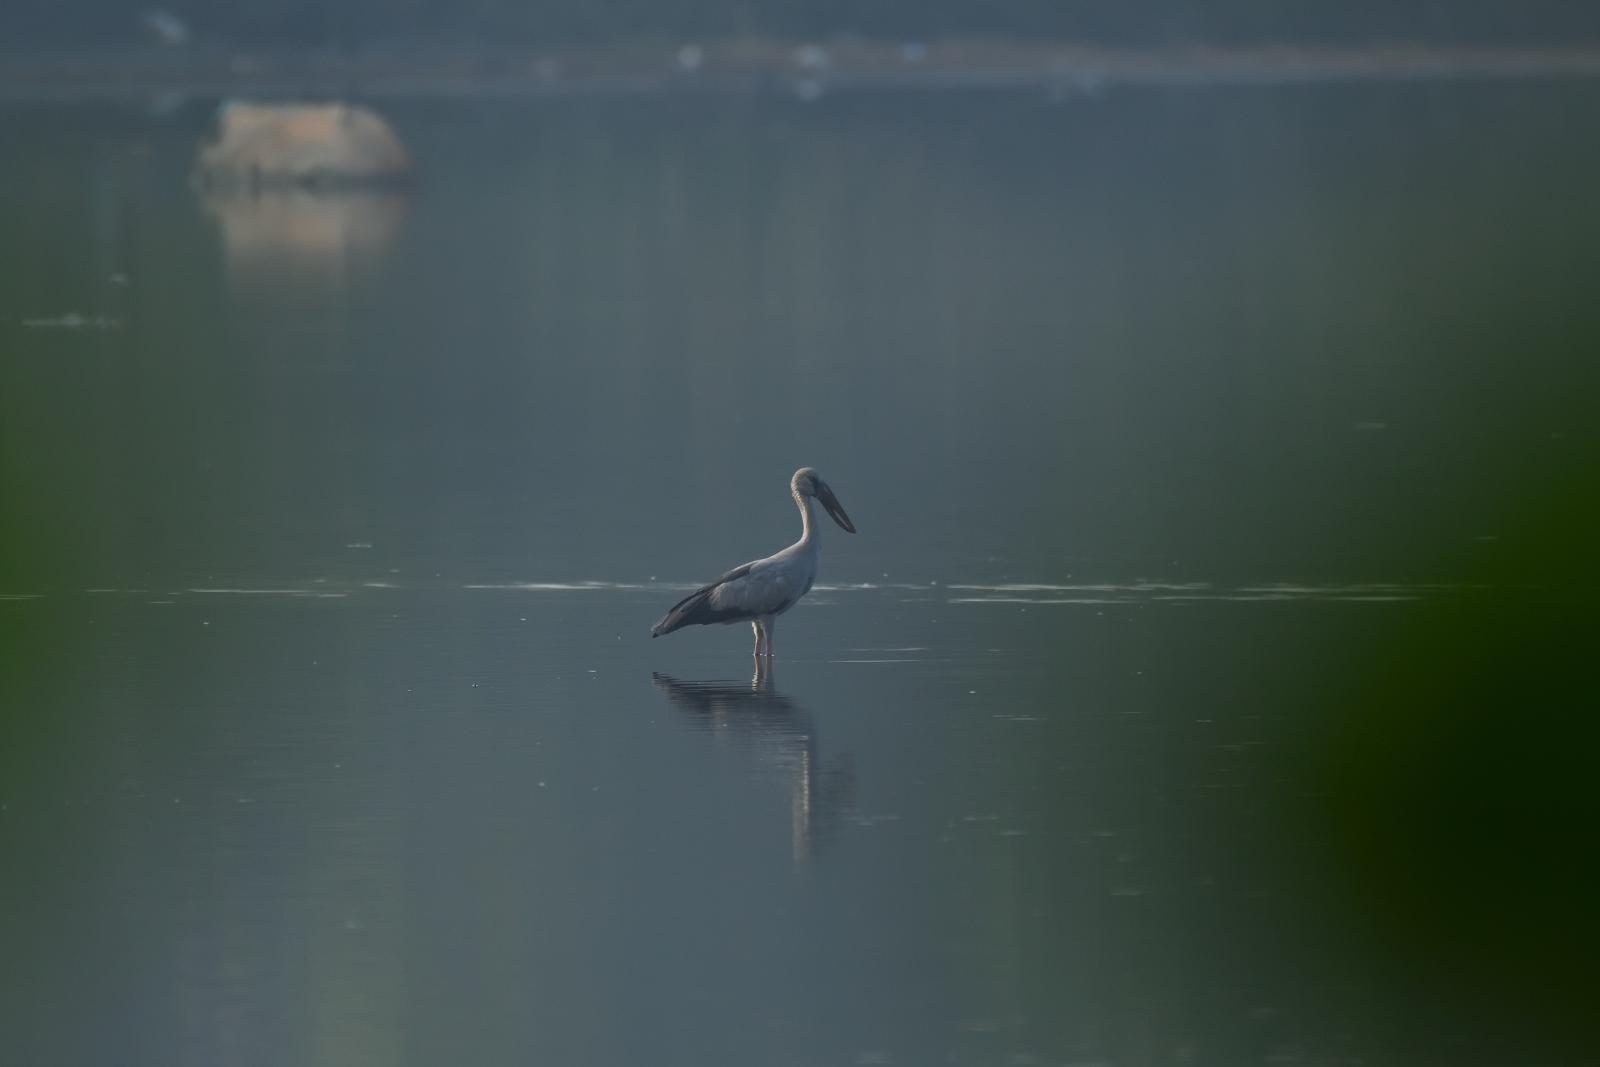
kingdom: Animalia
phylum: Chordata
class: Aves
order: Ciconiiformes
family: Ciconiidae
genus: Anastomus
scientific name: Anastomus oscitans
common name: Asian openbill
